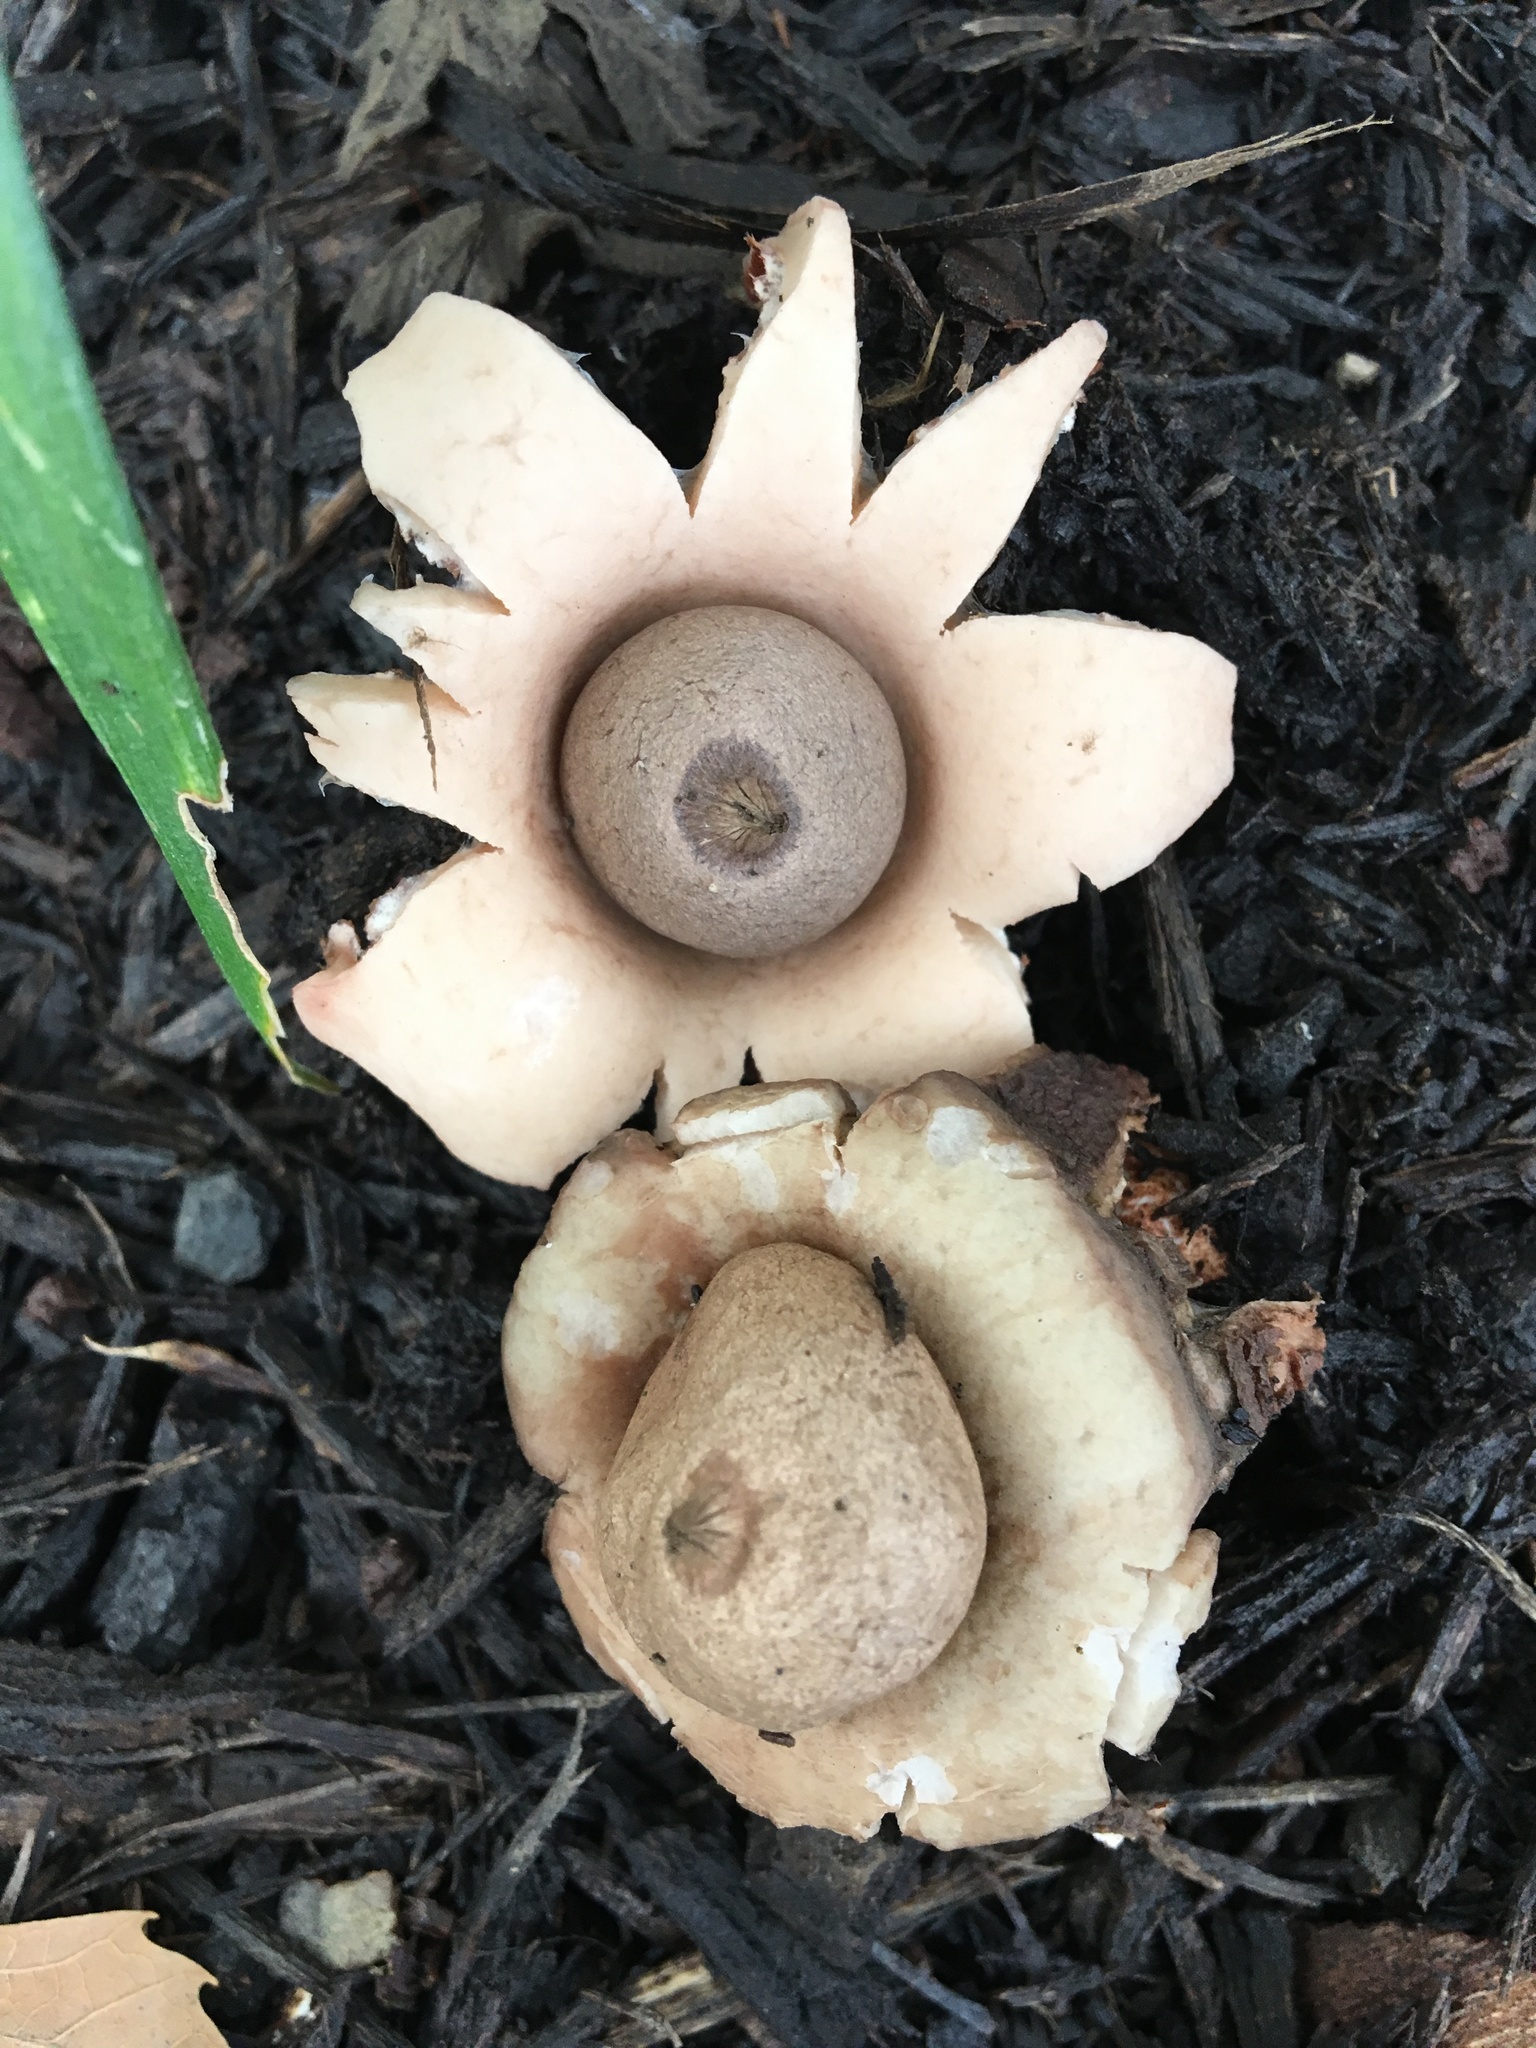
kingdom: Fungi
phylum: Basidiomycota
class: Agaricomycetes
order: Geastrales
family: Geastraceae
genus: Geastrum
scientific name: Geastrum saccatum
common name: Rounded earthstar
